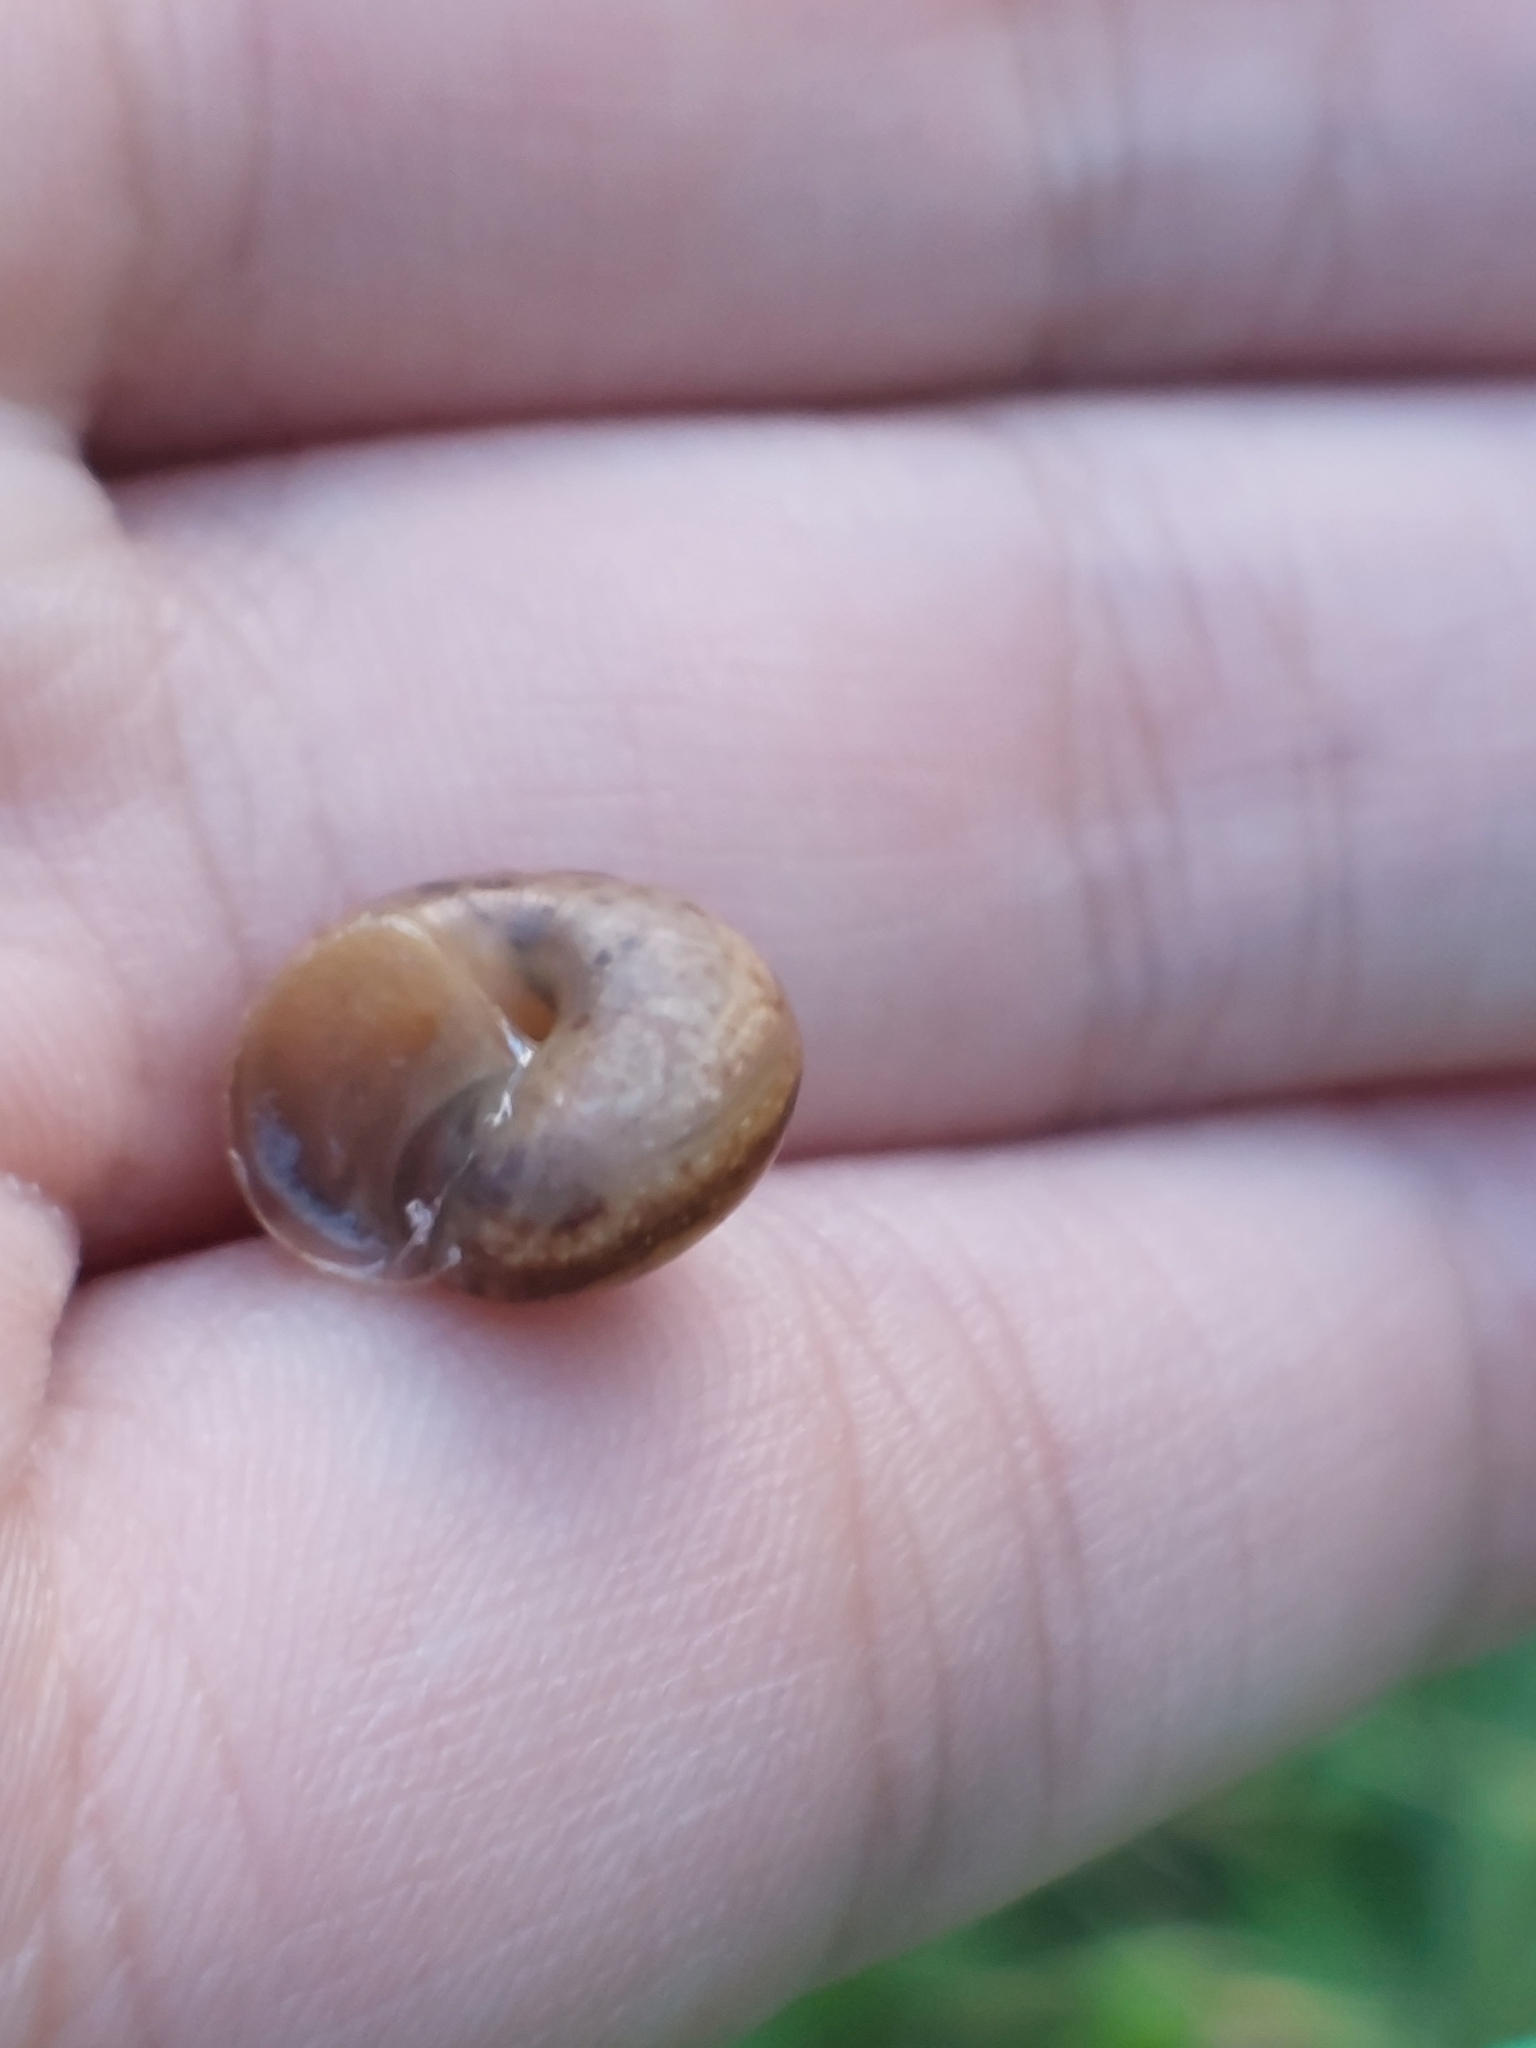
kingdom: Animalia
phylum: Mollusca
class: Gastropoda
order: Stylommatophora
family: Camaenidae
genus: Fruticicola
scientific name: Fruticicola fruticum
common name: Bush snail
